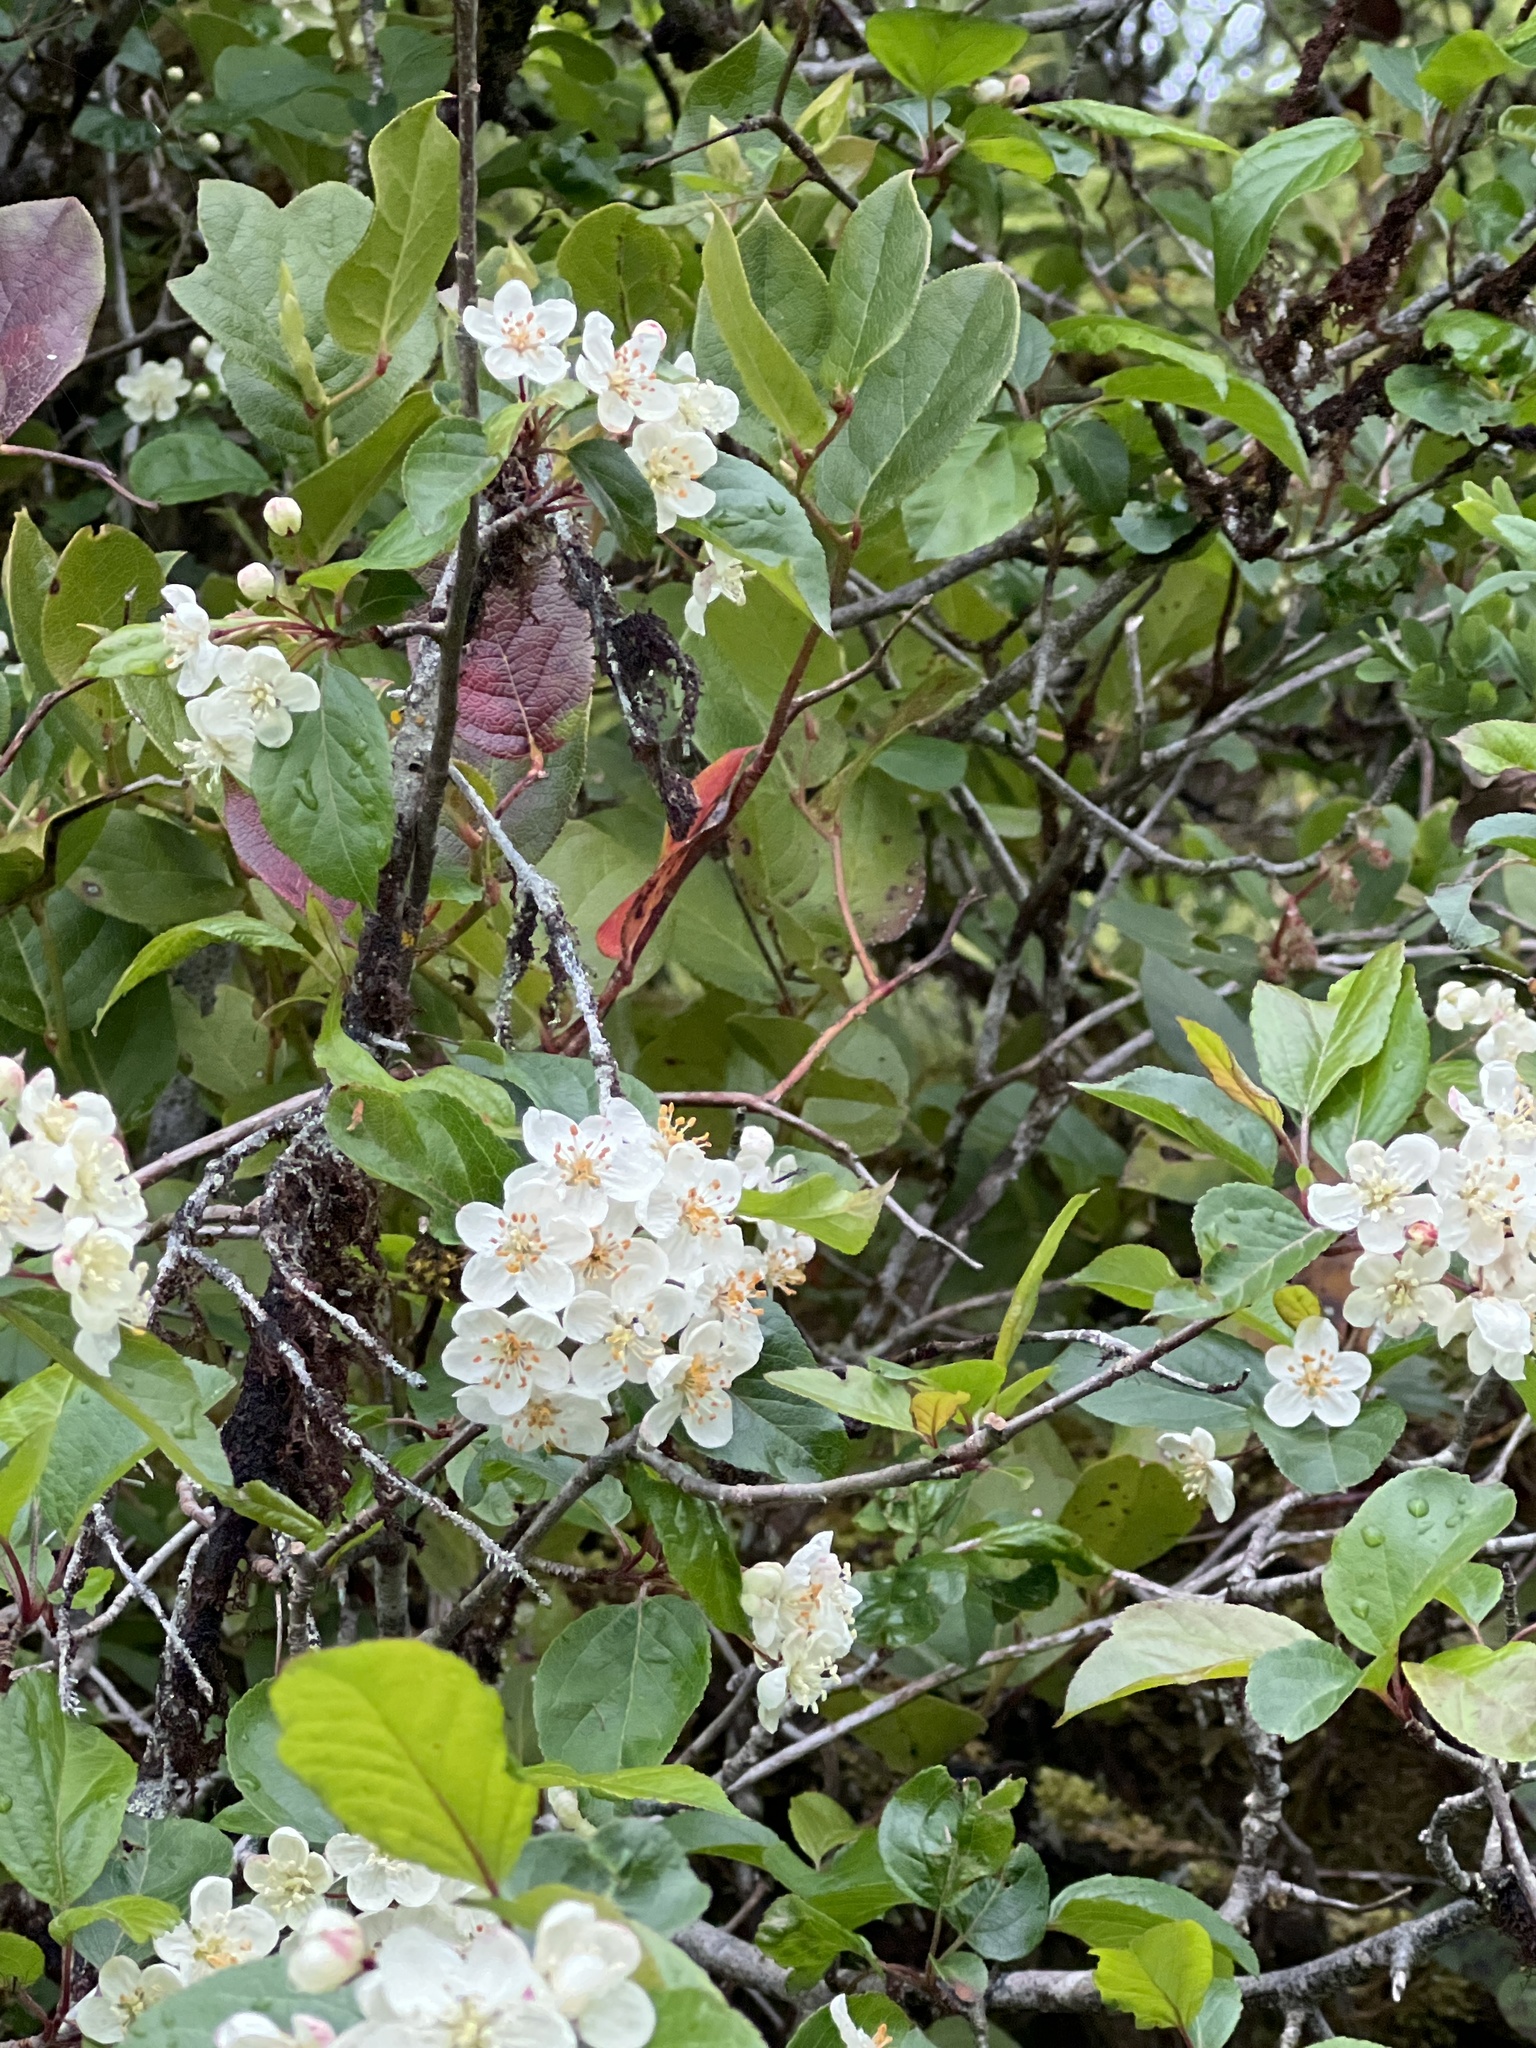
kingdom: Plantae
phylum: Tracheophyta
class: Magnoliopsida
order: Rosales
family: Rosaceae
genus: Malus
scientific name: Malus fusca
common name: Oregon crab apple
